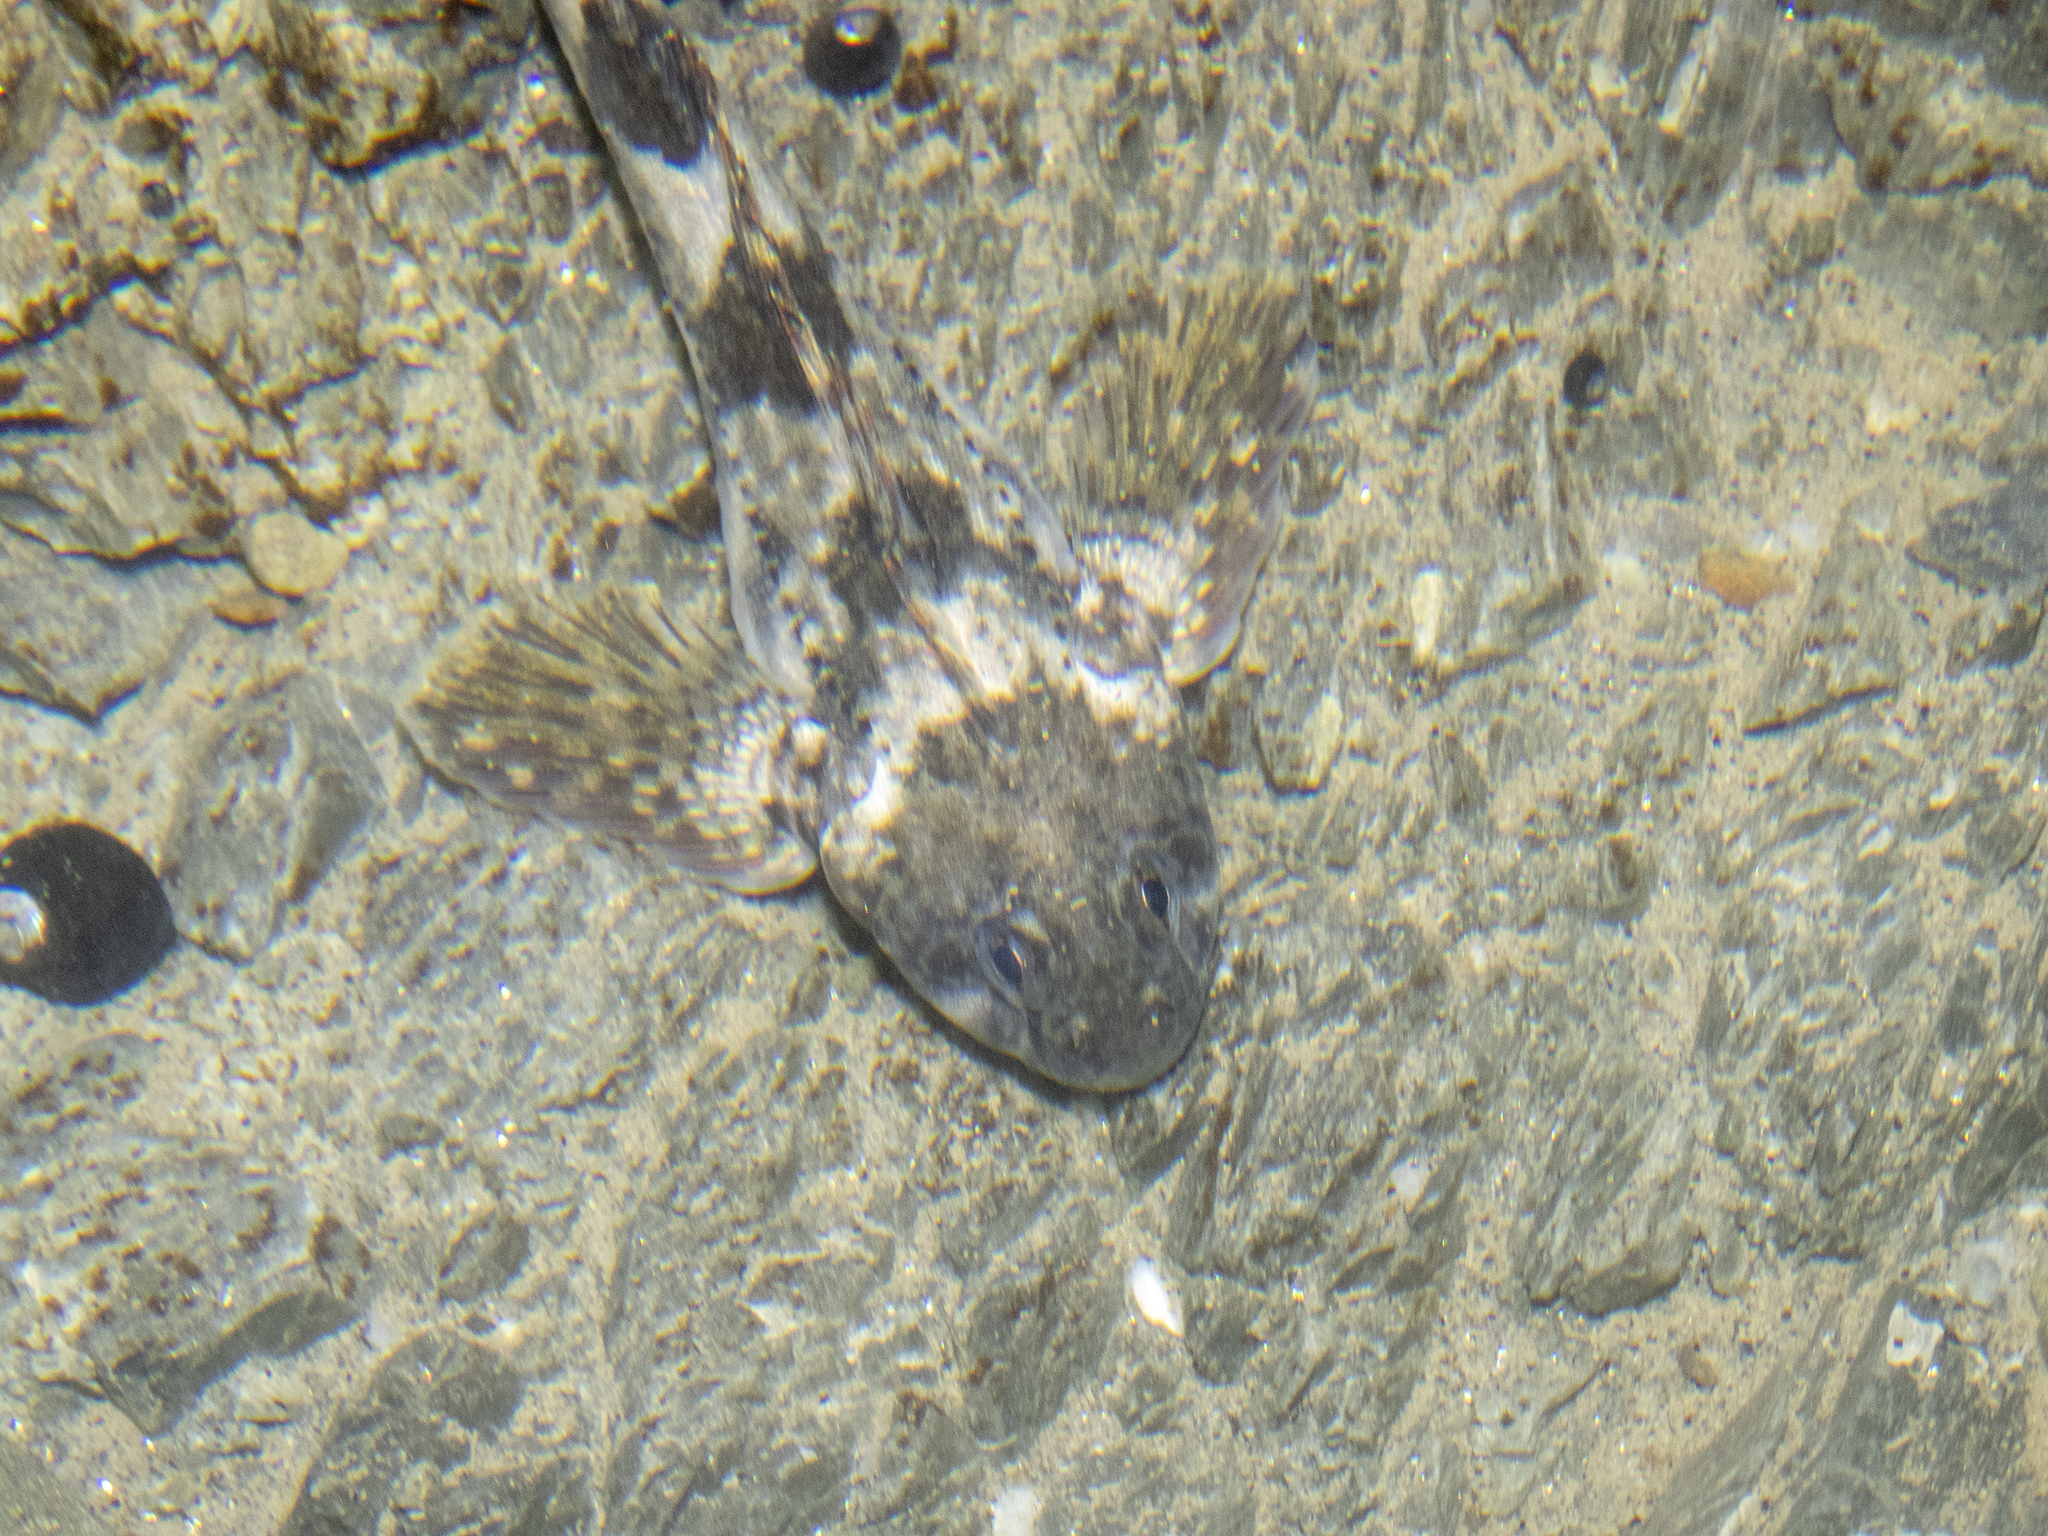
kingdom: Animalia
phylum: Chordata
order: Perciformes
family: Tripterygiidae
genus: Blennodon
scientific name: Blennodon dorsalis
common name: Giant triplefin
